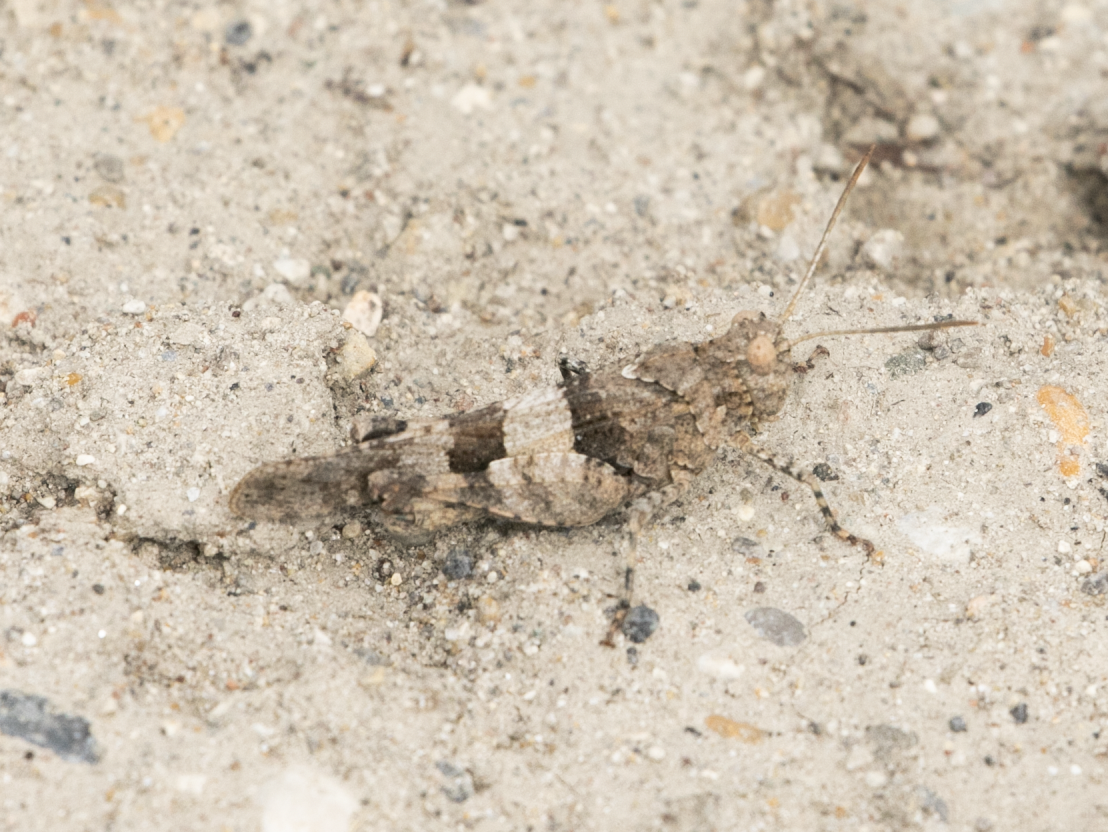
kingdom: Animalia
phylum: Arthropoda
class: Insecta
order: Orthoptera
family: Acrididae
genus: Oedipoda
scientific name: Oedipoda caerulescens
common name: Blue-winged grasshopper
